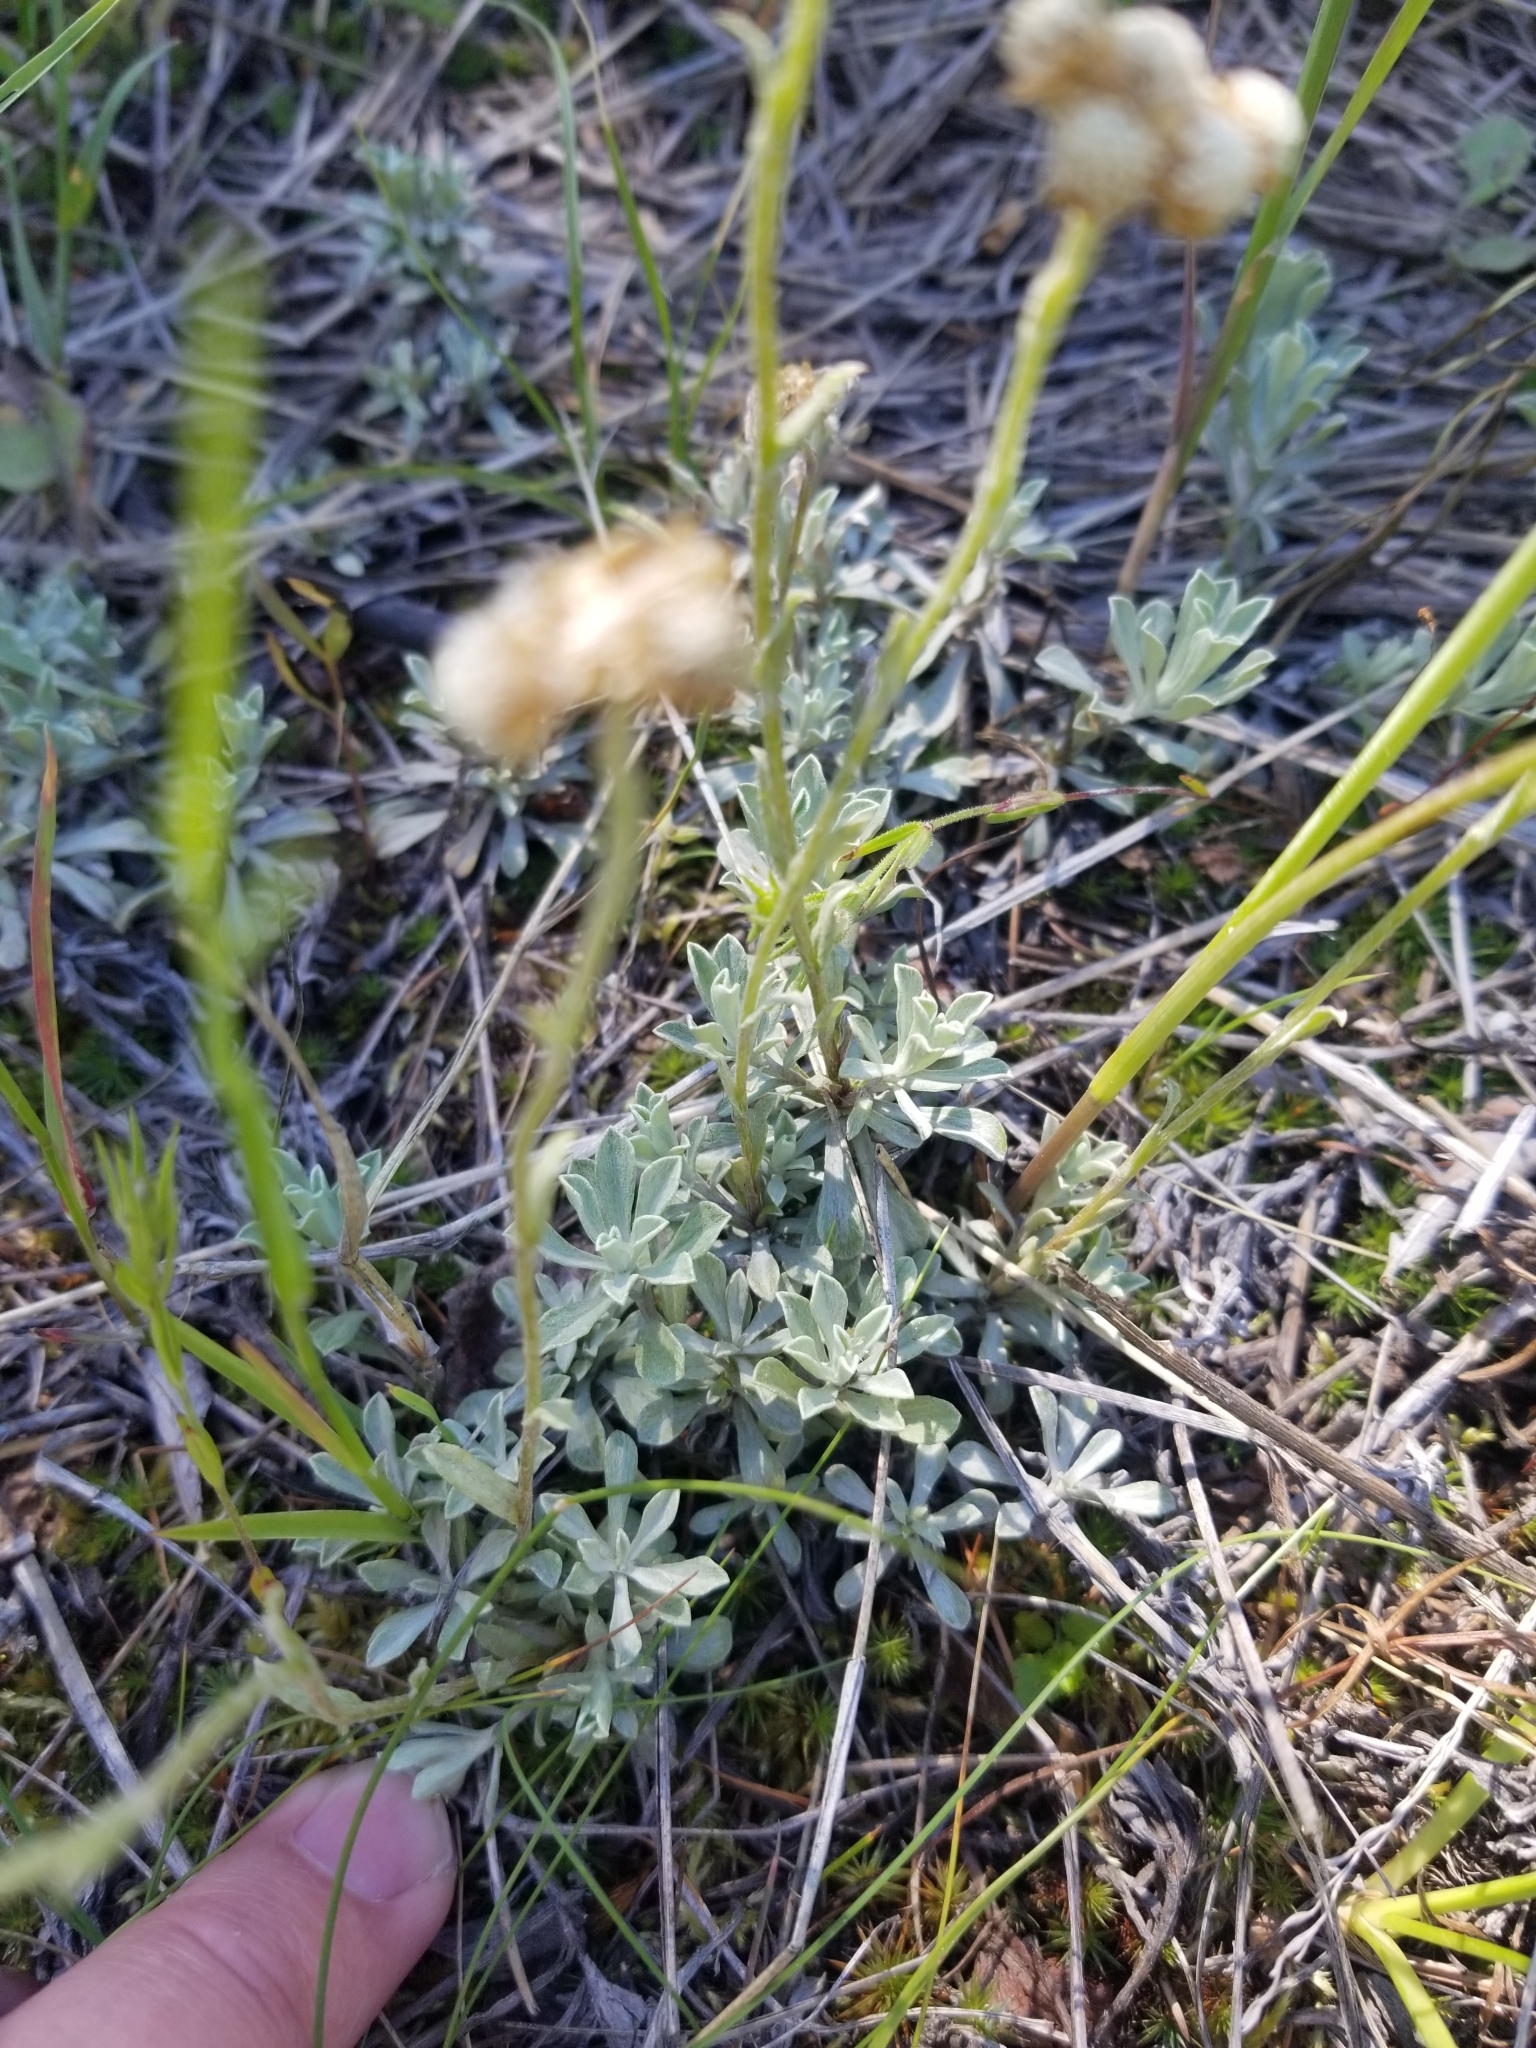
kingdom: Plantae
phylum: Tracheophyta
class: Magnoliopsida
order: Asterales
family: Asteraceae
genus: Antennaria
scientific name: Antennaria umbrinella
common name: Brown pussytoes
